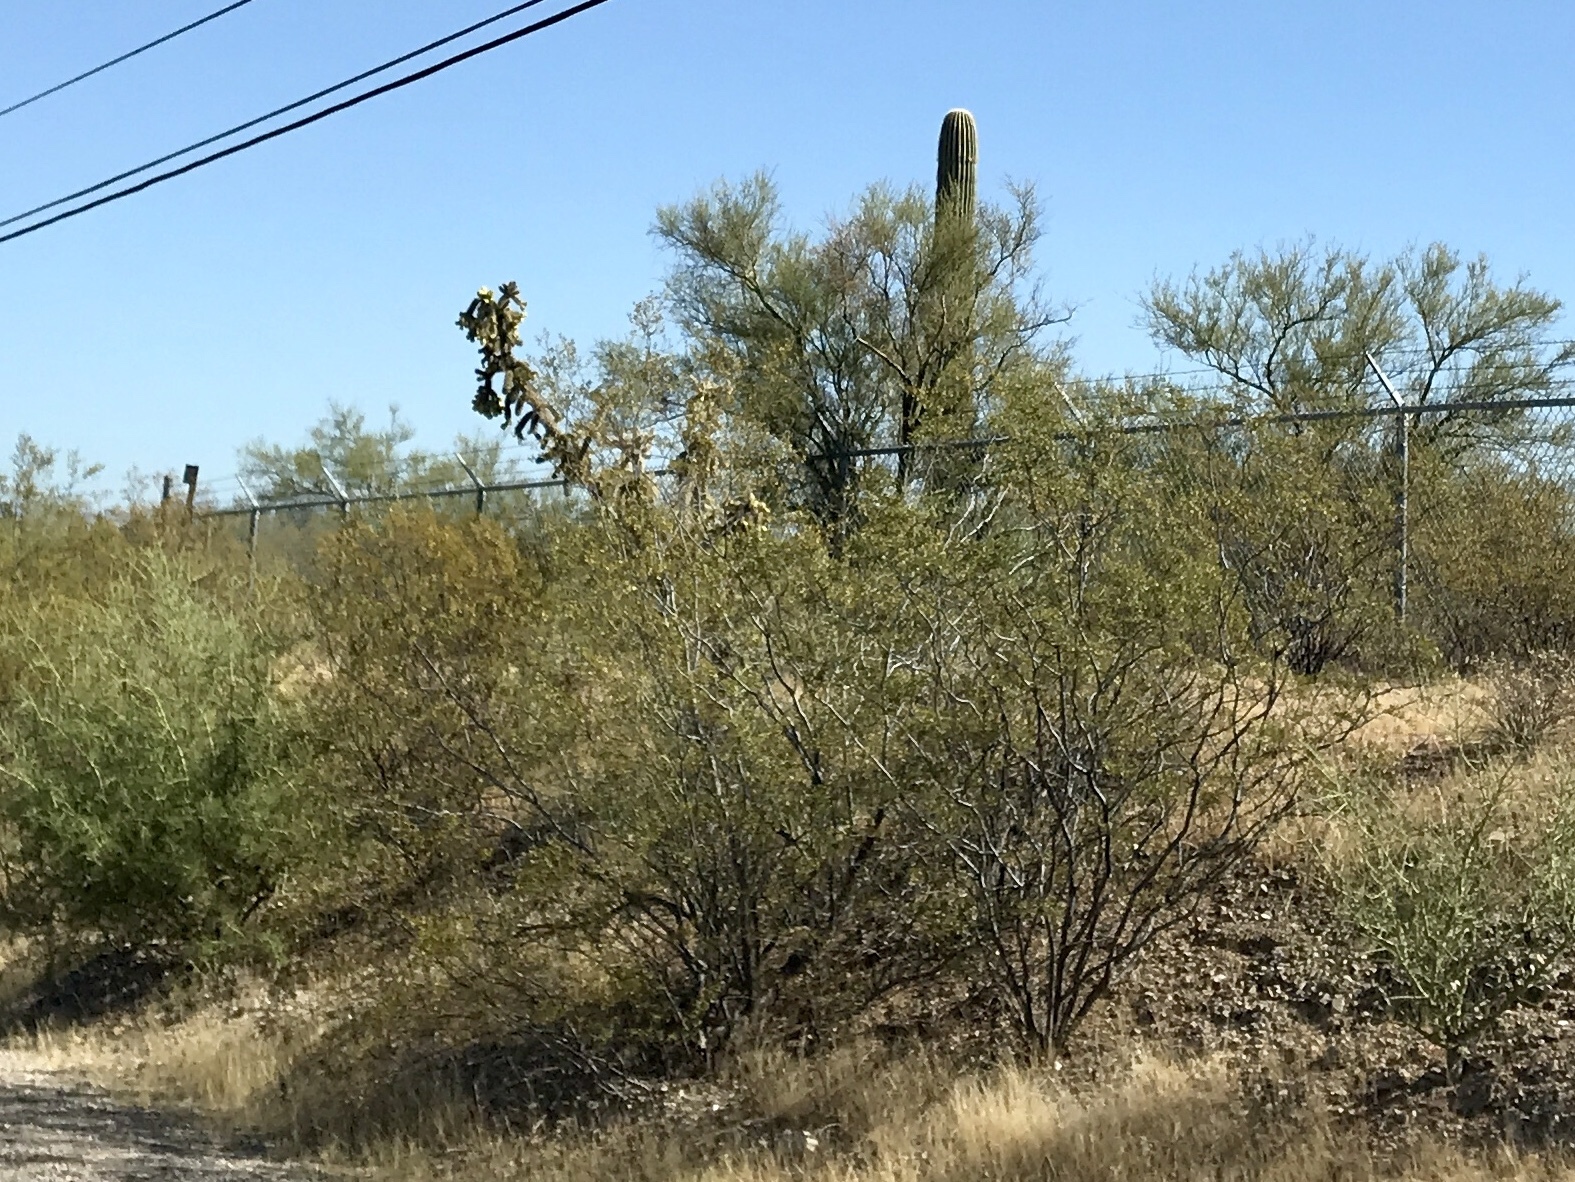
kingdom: Plantae
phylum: Tracheophyta
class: Magnoliopsida
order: Zygophyllales
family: Zygophyllaceae
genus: Larrea
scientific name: Larrea tridentata
